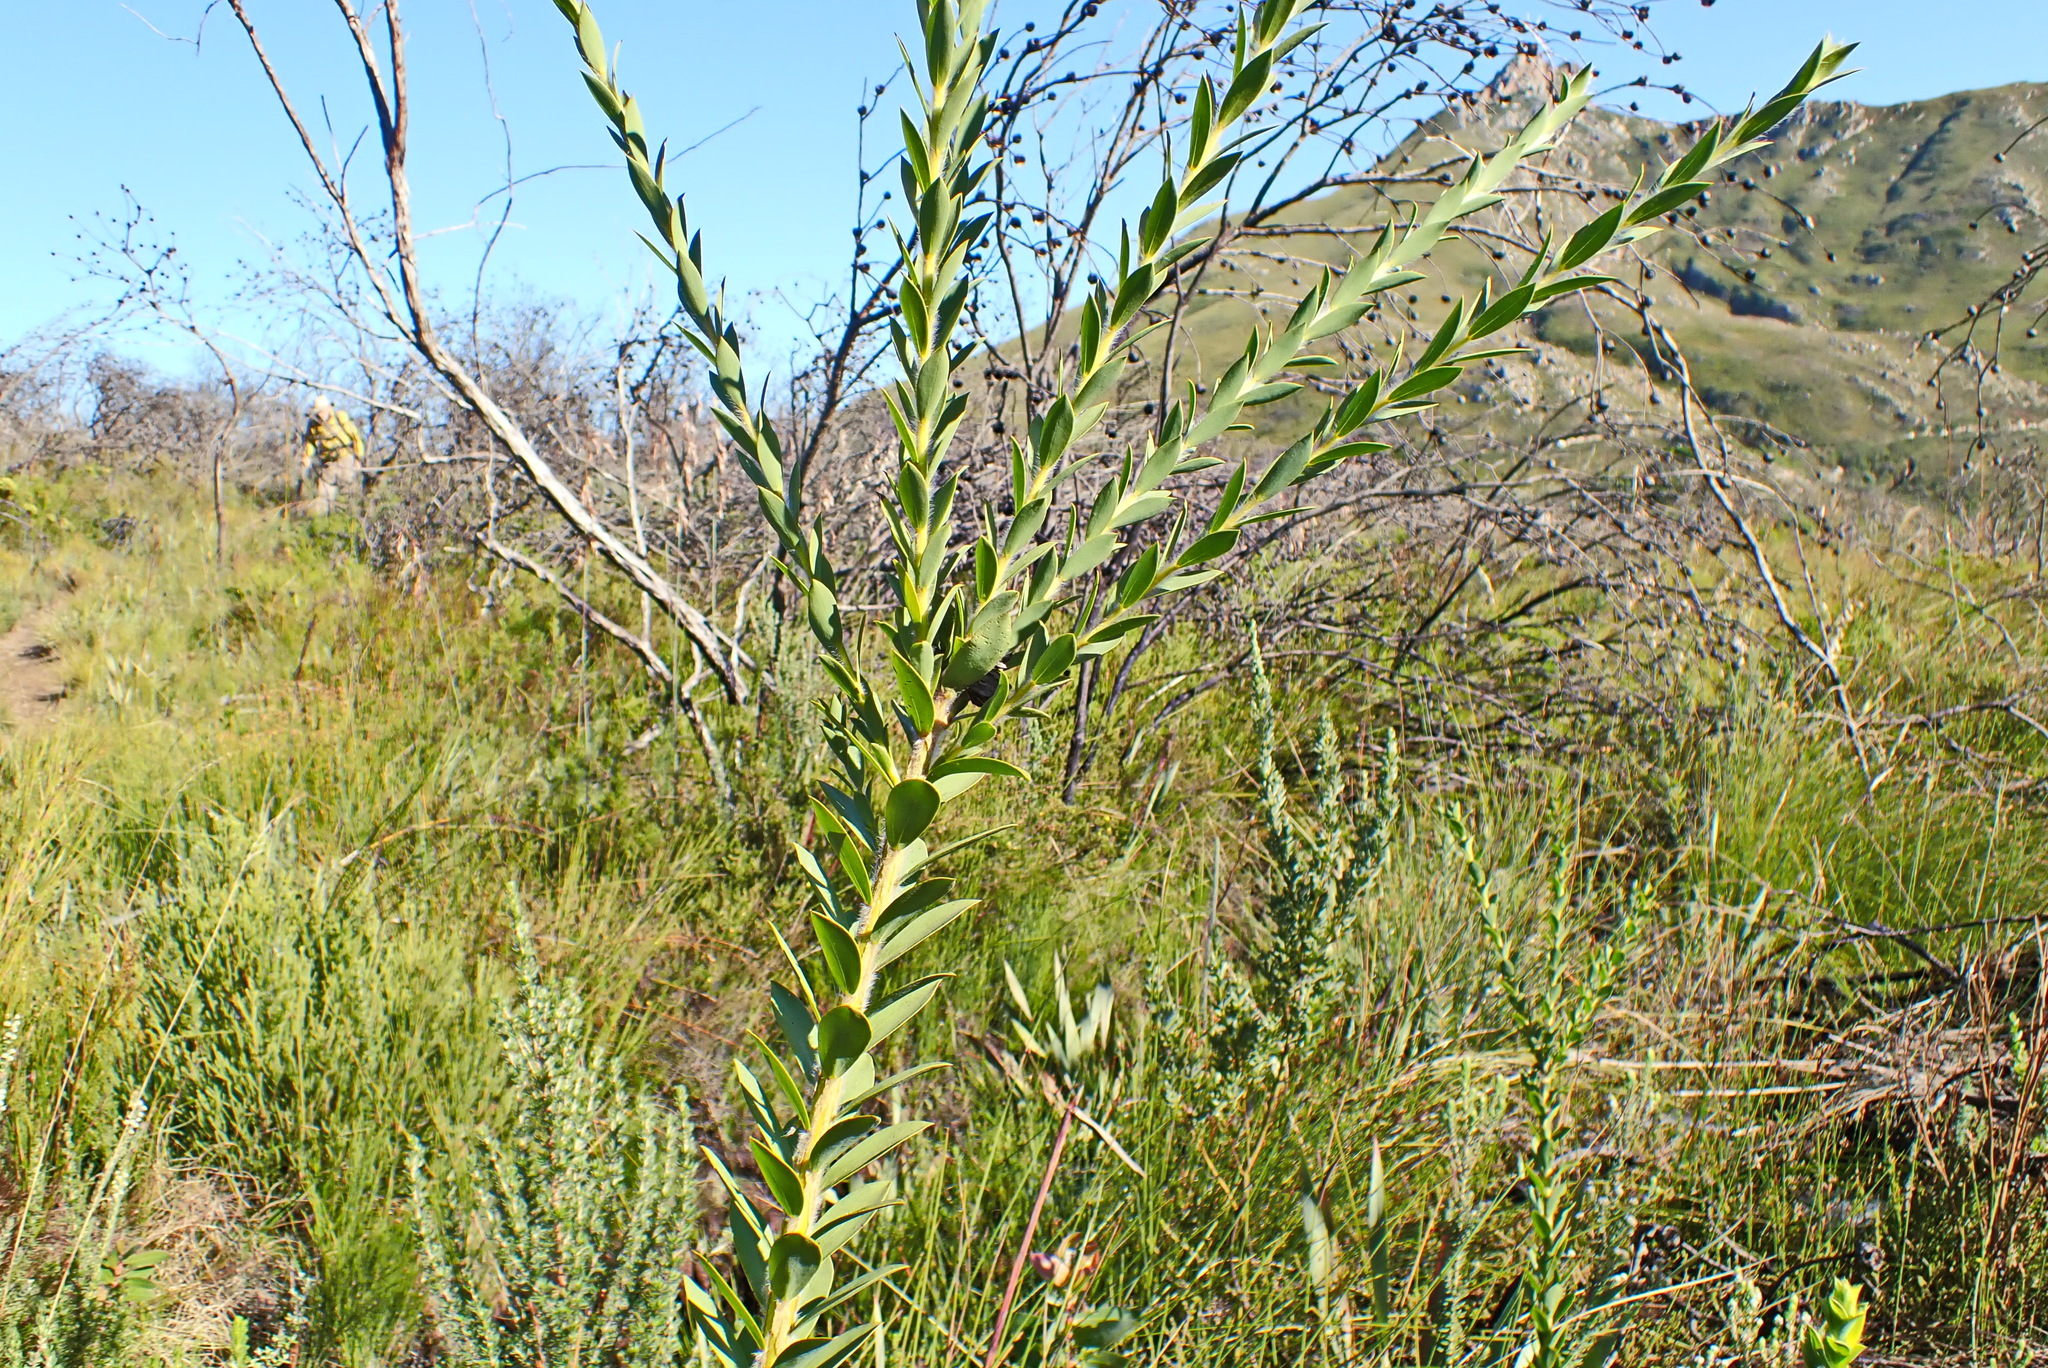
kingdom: Plantae
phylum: Tracheophyta
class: Magnoliopsida
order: Fabales
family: Fabaceae
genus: Liparia
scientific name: Liparia hirsuta
